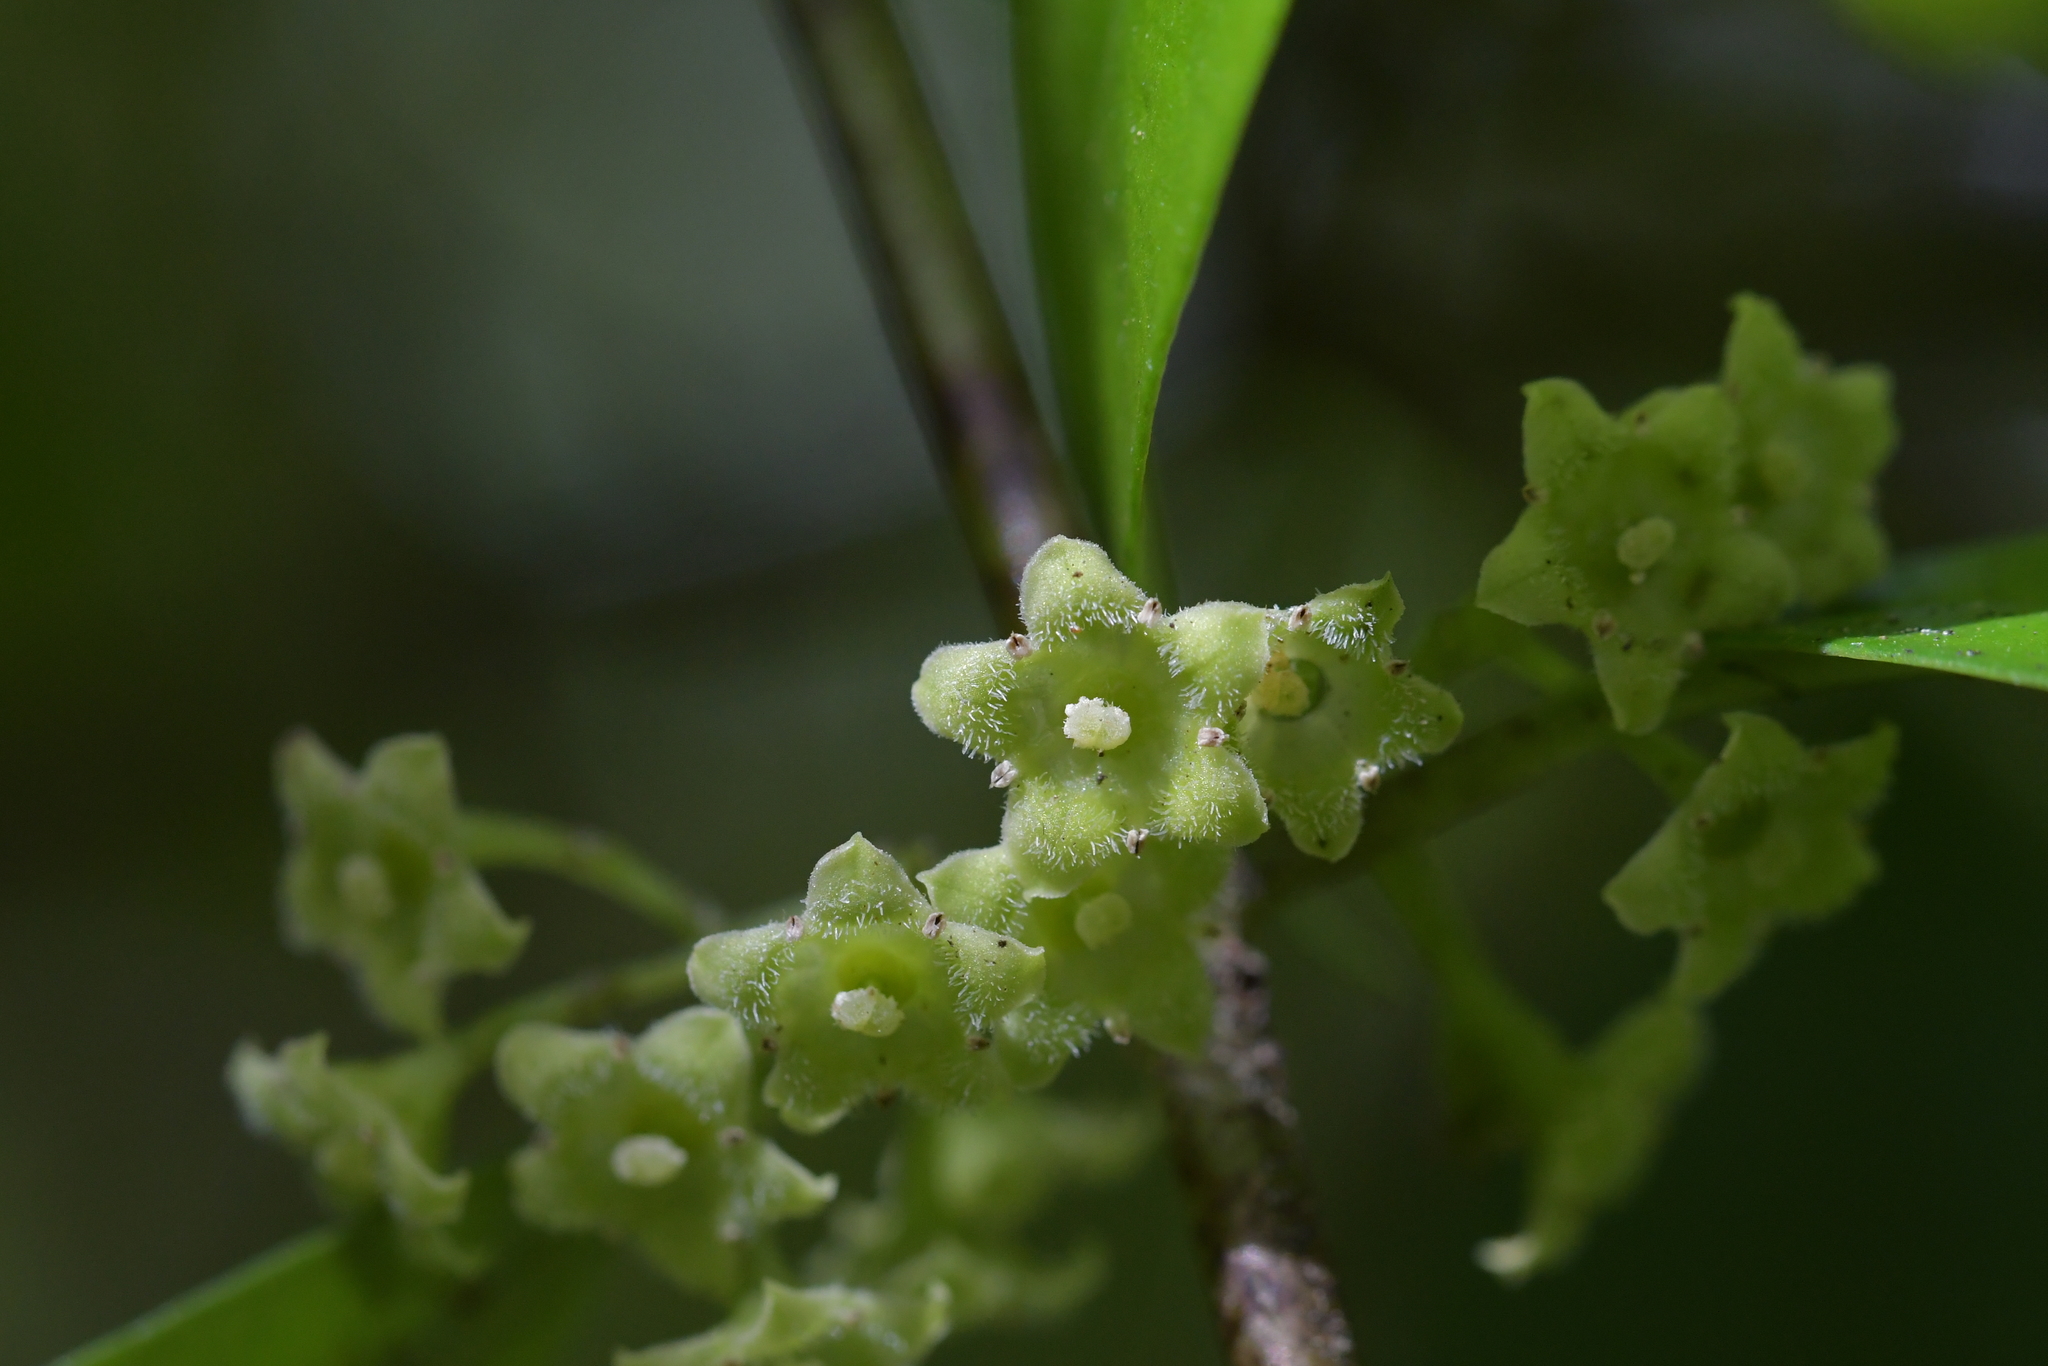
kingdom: Plantae
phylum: Tracheophyta
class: Magnoliopsida
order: Gentianales
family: Loganiaceae
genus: Geniostoma
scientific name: Geniostoma ligustrifolium
